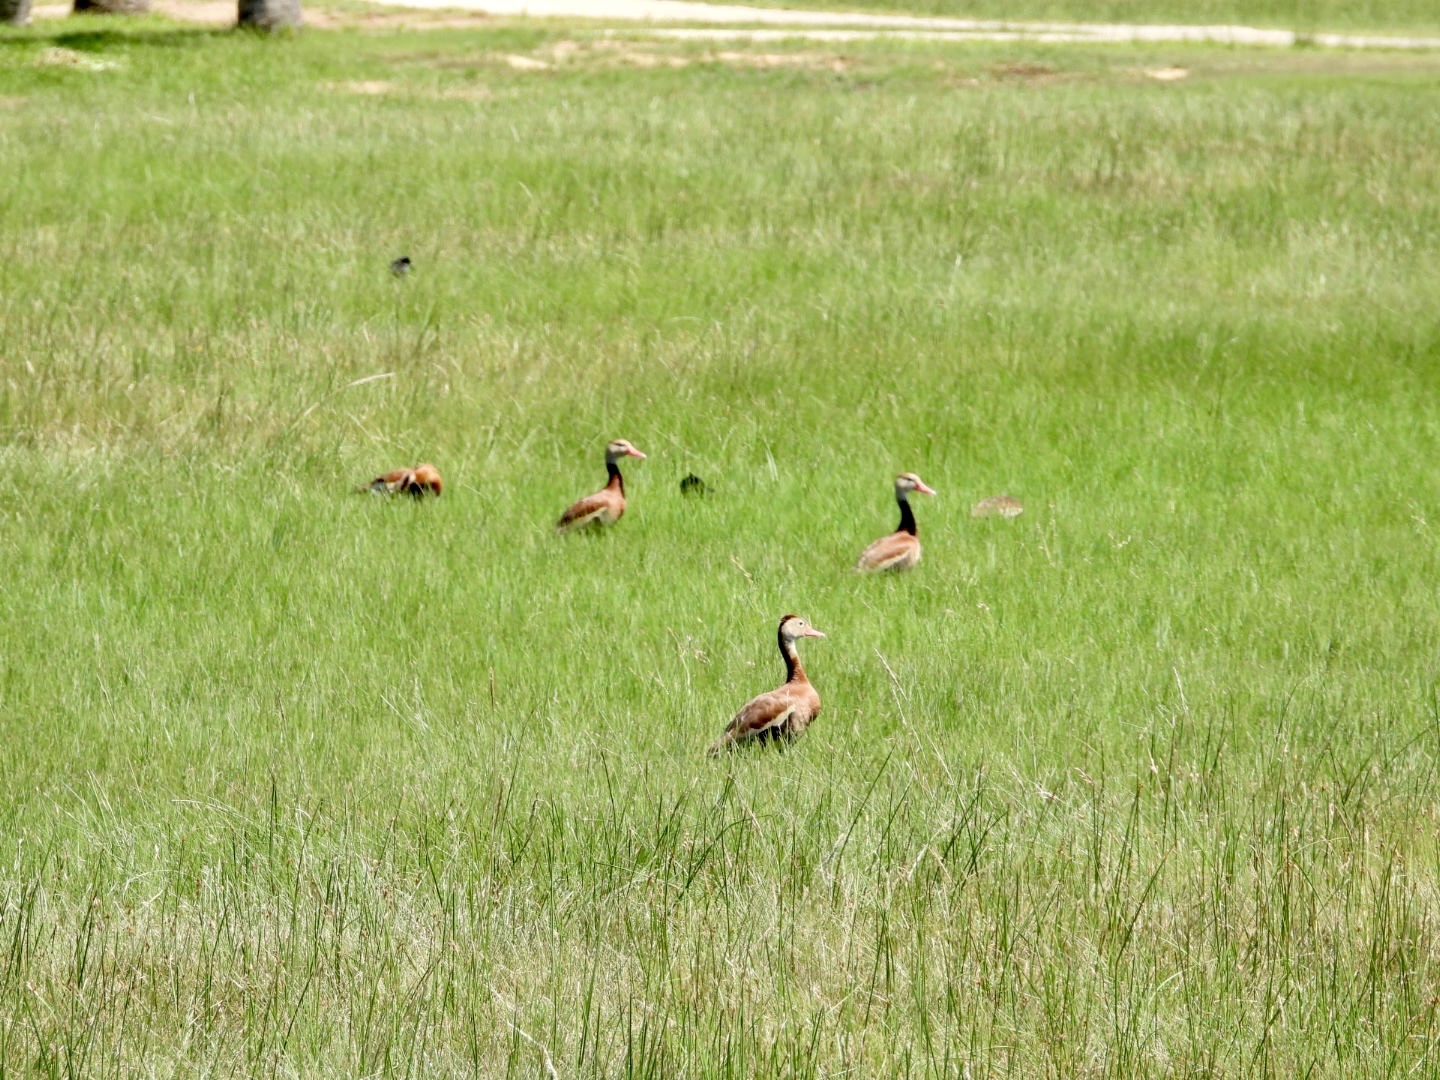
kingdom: Animalia
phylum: Chordata
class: Aves
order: Anseriformes
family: Anatidae
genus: Dendrocygna
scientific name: Dendrocygna autumnalis
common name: Black-bellied whistling duck
